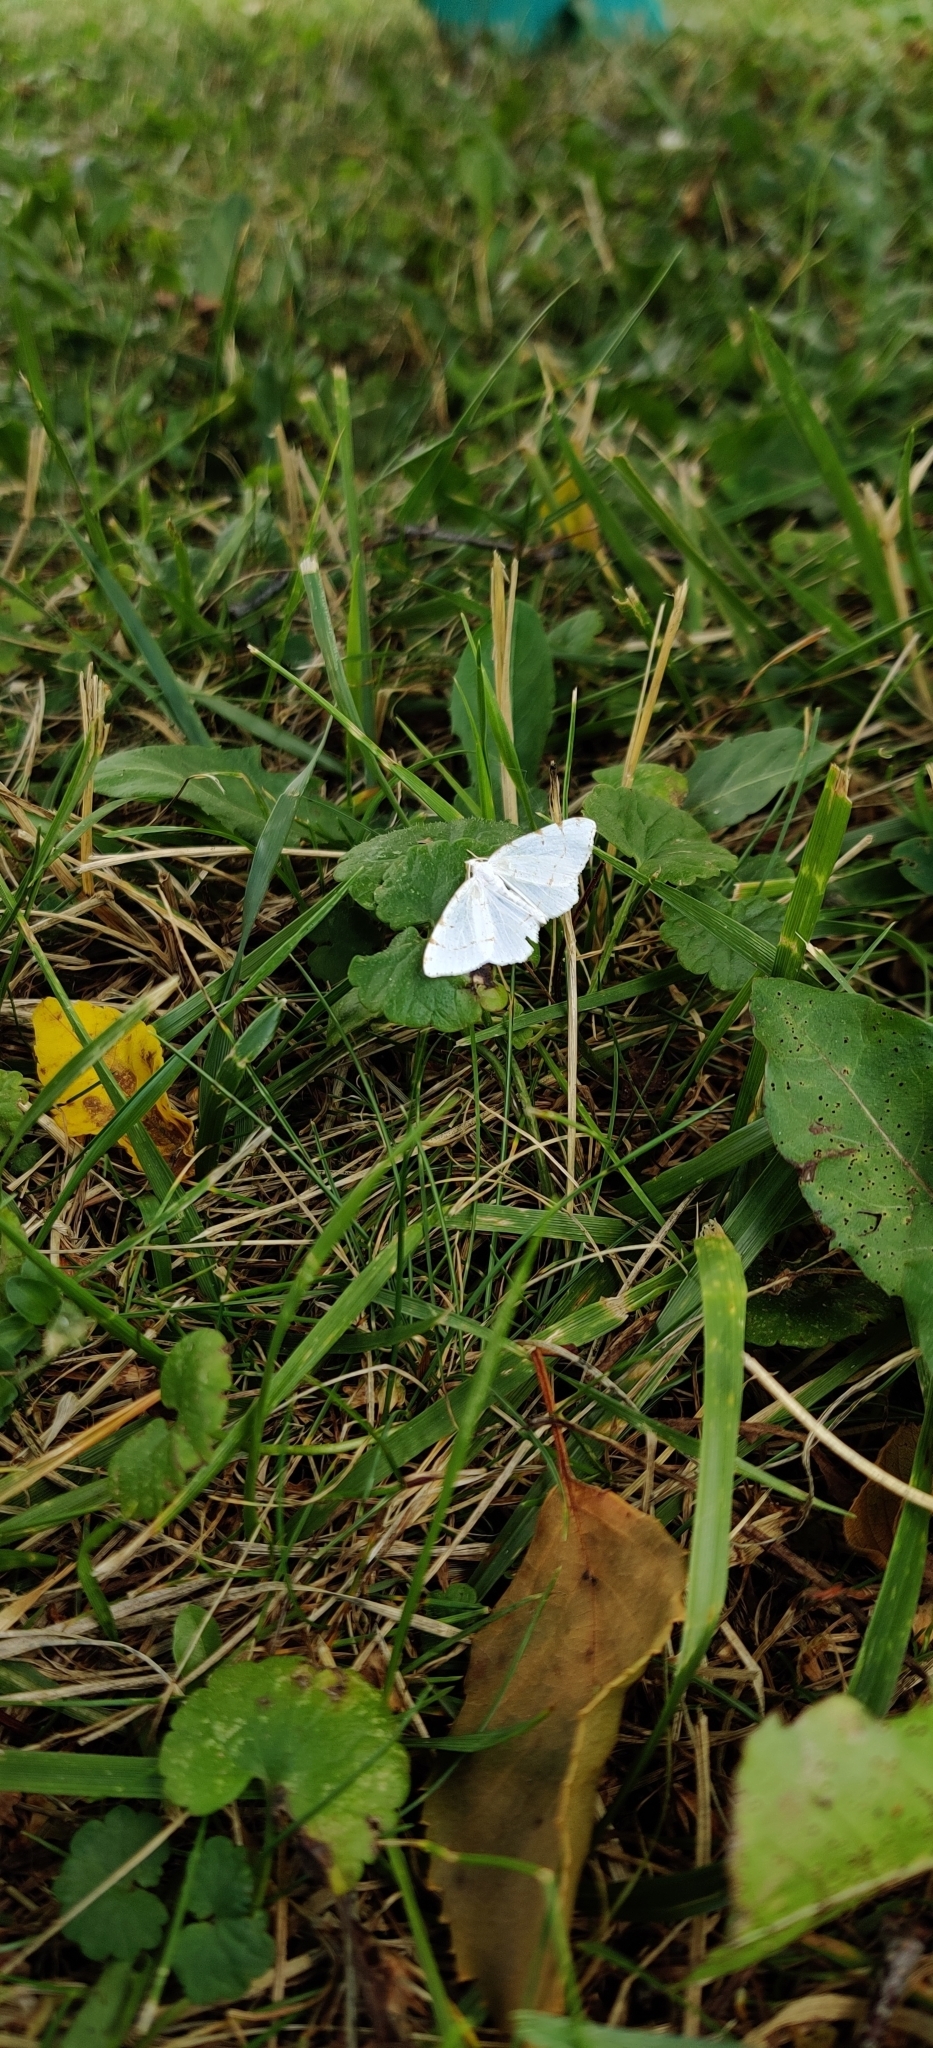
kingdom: Animalia
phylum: Arthropoda
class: Insecta
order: Lepidoptera
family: Geometridae
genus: Macaria
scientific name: Macaria pustularia
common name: Lesser maple spanworm moth
